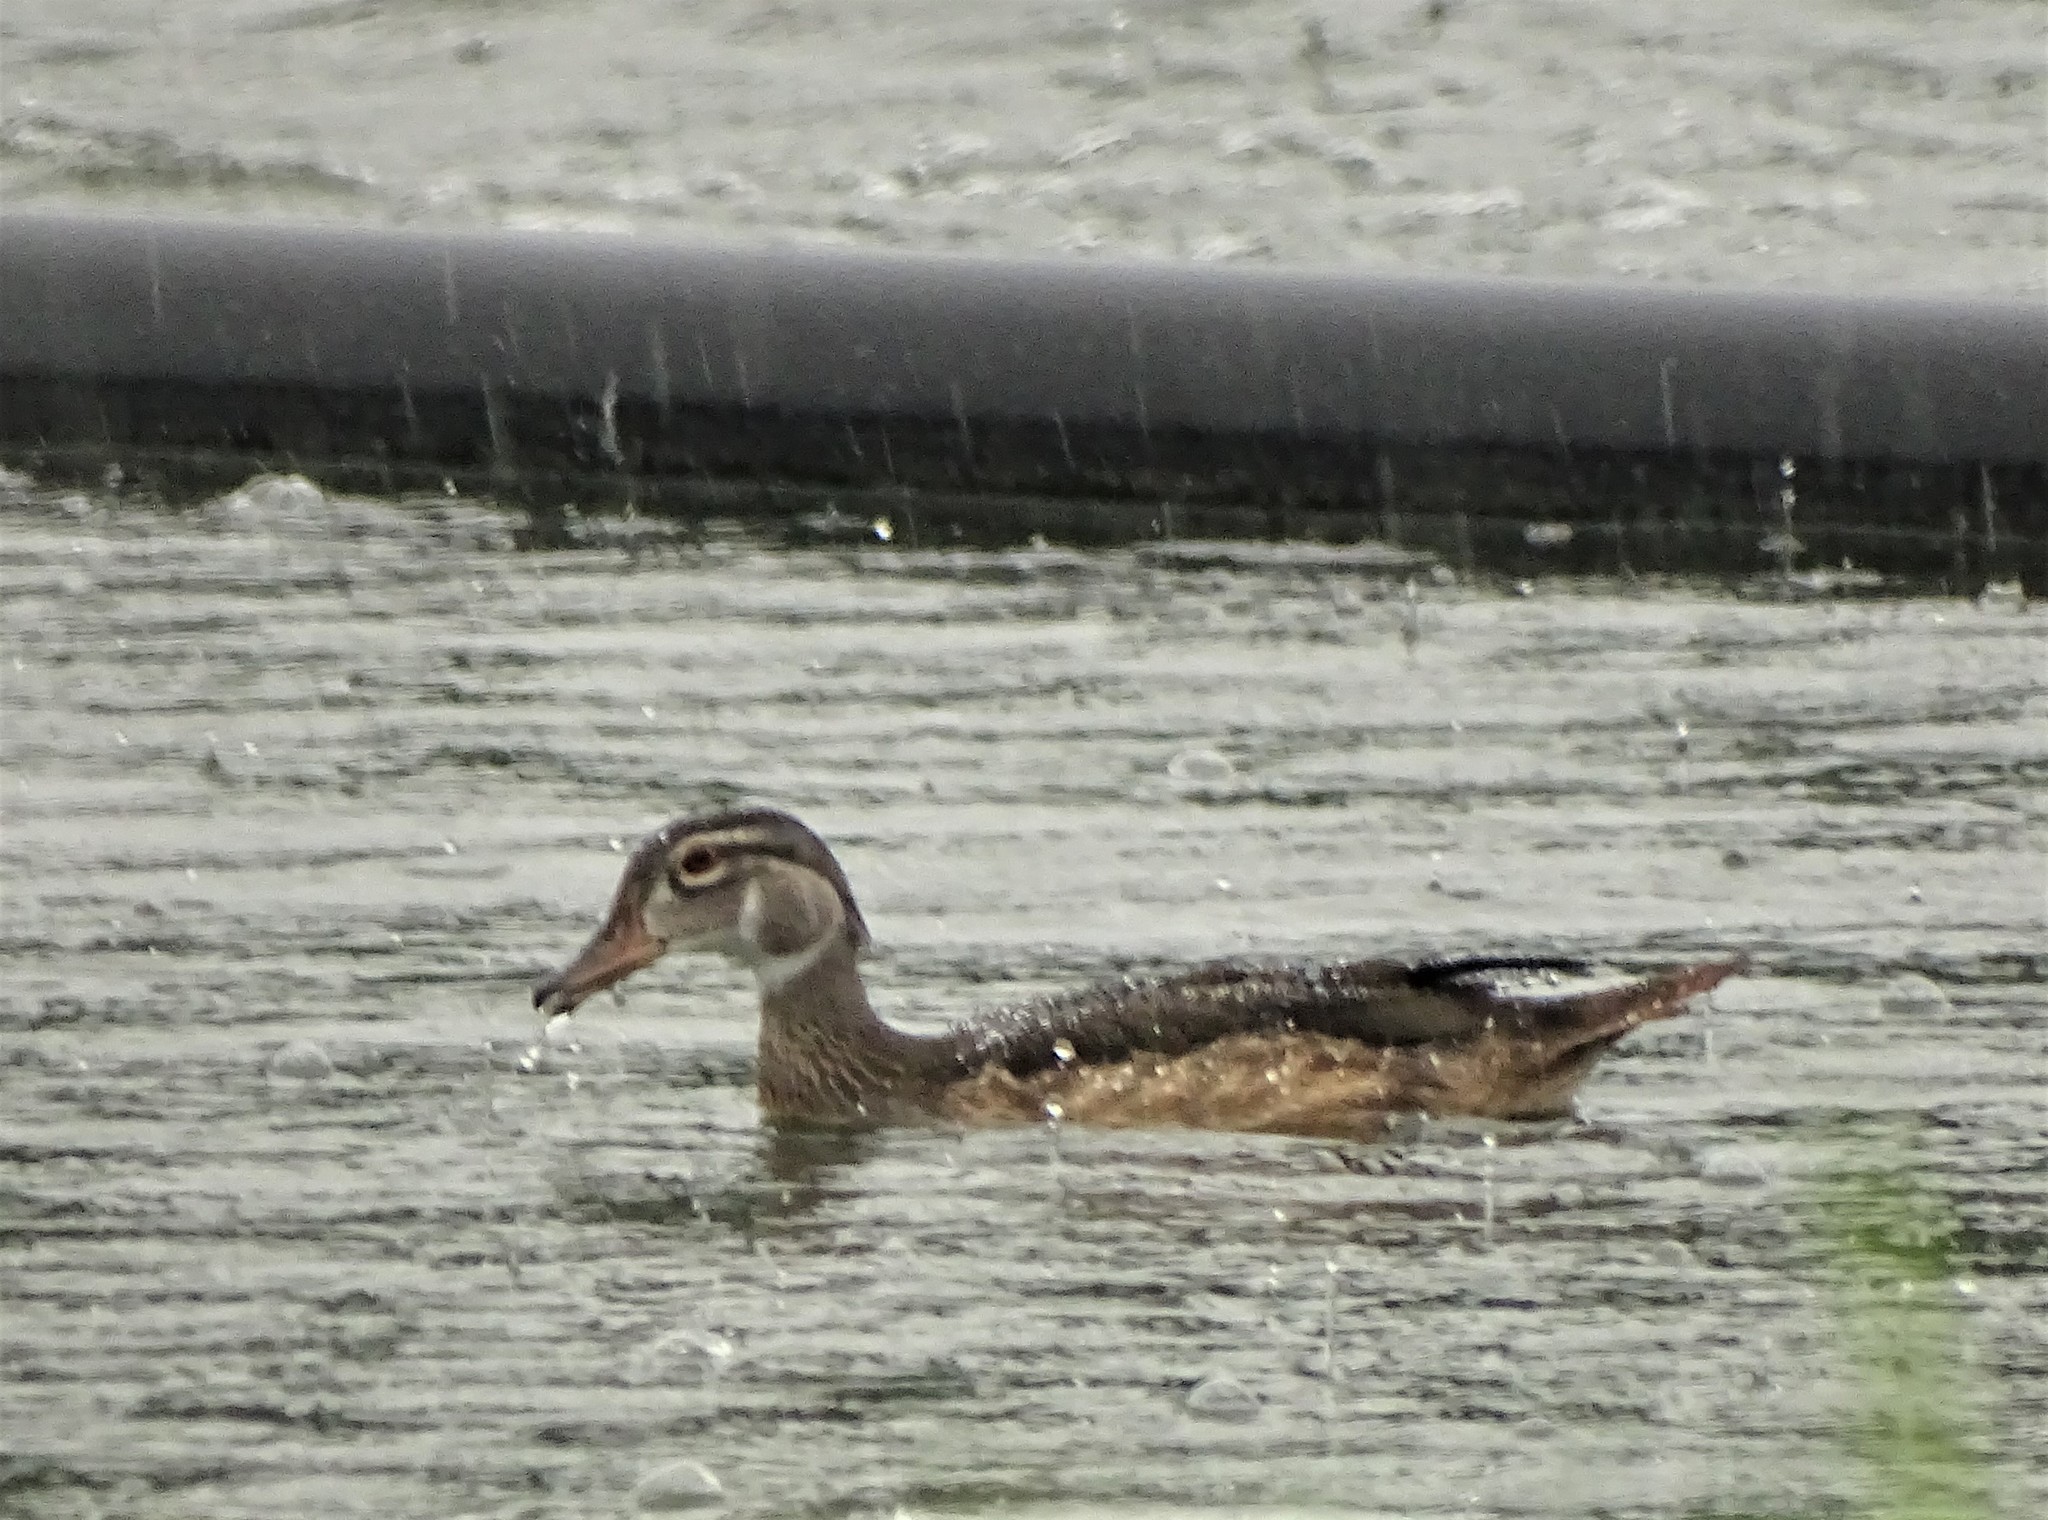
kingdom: Animalia
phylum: Chordata
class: Aves
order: Anseriformes
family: Anatidae
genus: Aix
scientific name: Aix sponsa
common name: Wood duck
